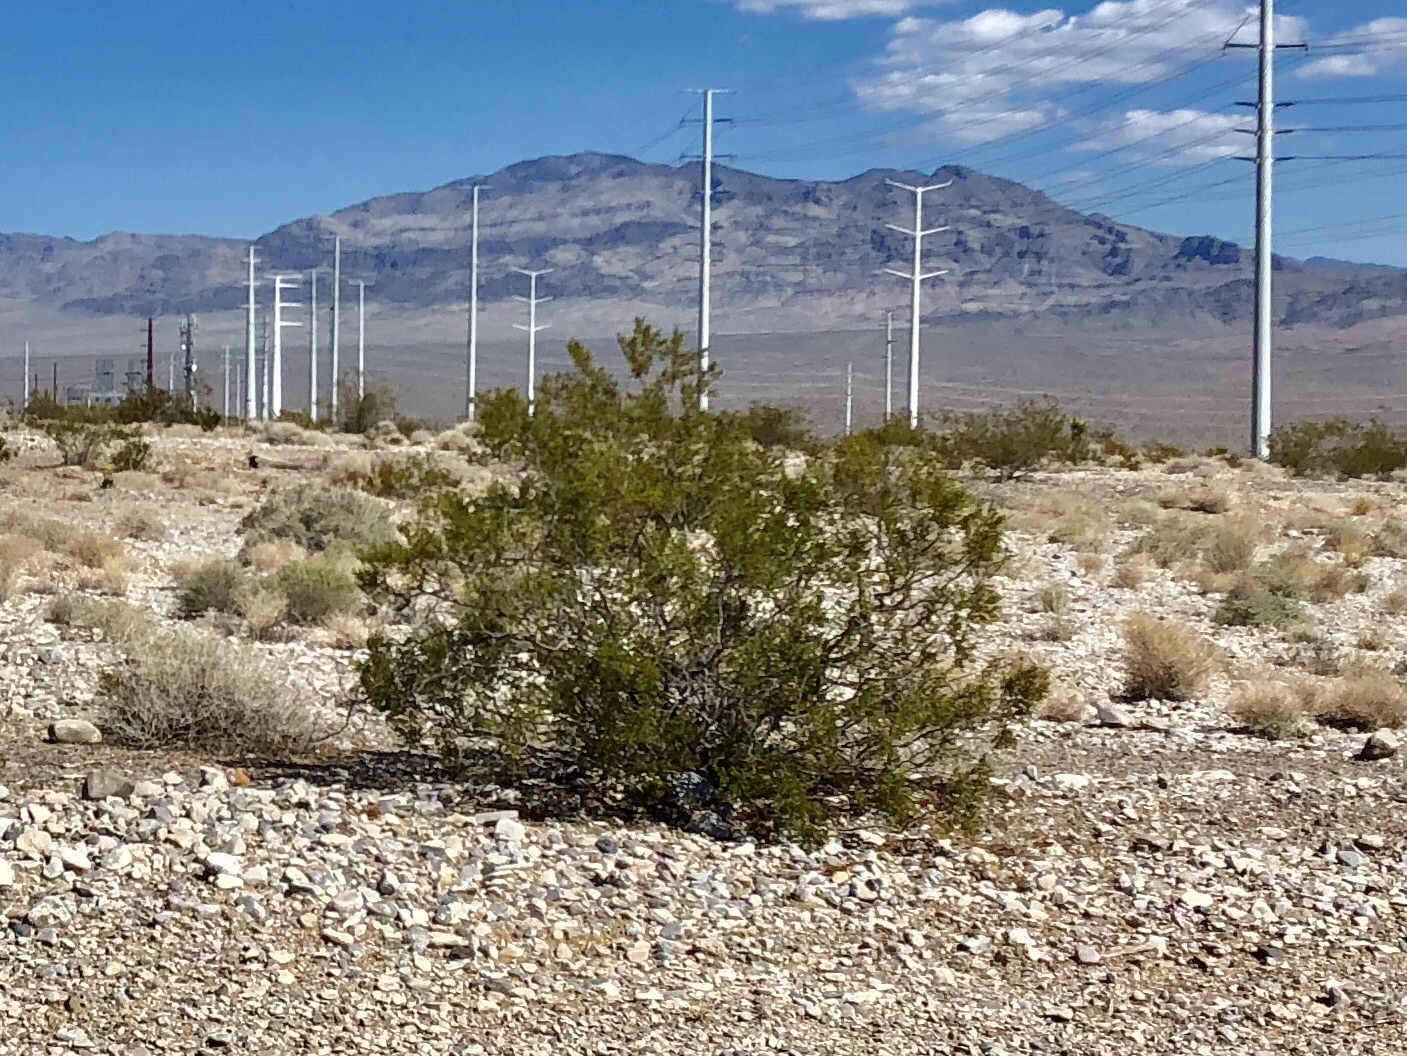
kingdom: Plantae
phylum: Tracheophyta
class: Magnoliopsida
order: Zygophyllales
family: Zygophyllaceae
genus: Larrea
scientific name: Larrea tridentata
